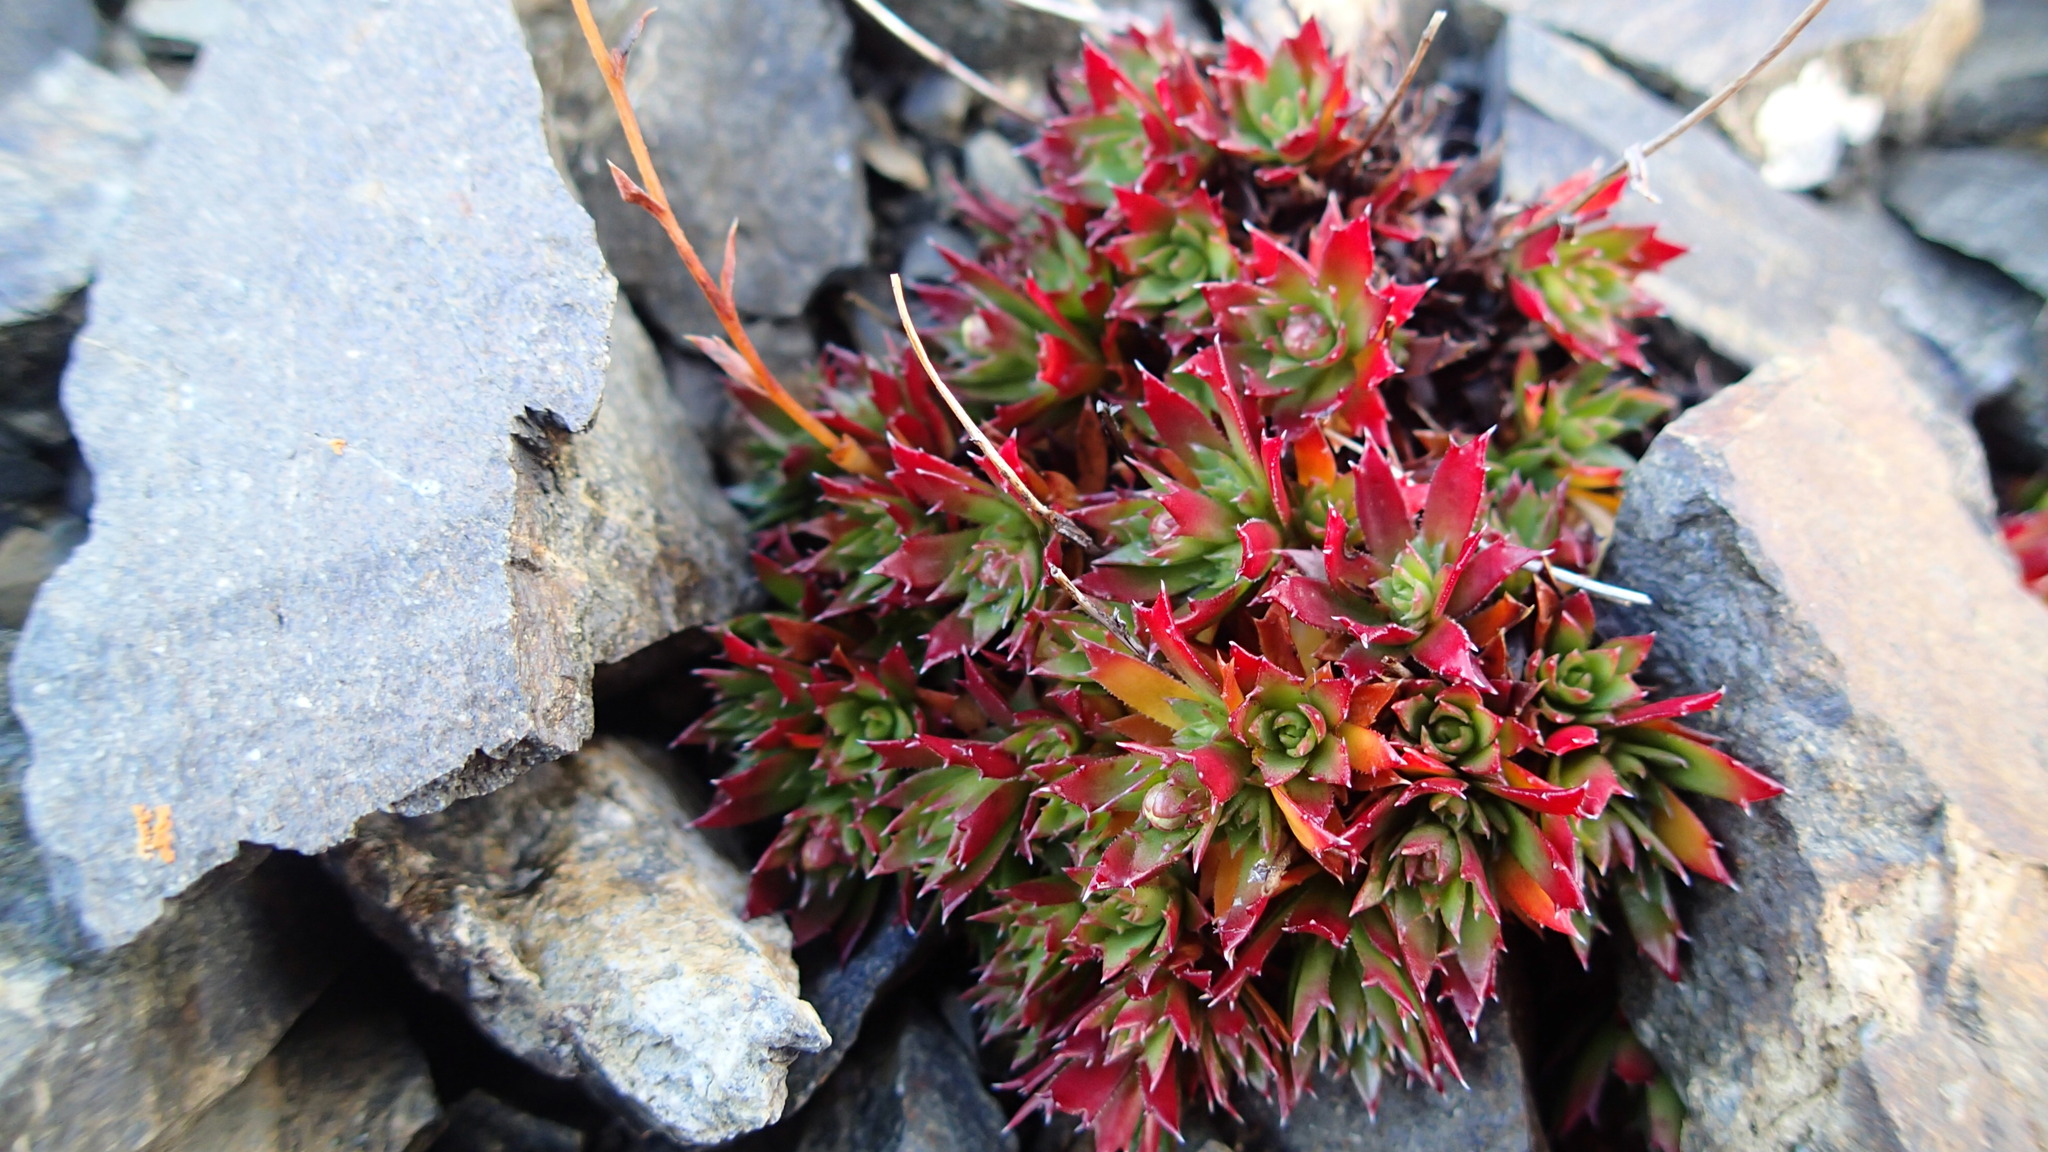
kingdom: Plantae
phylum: Tracheophyta
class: Magnoliopsida
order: Saxifragales
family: Saxifragaceae
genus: Saxifraga
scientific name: Saxifraga tricuspidata
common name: Prickly saxifrage
